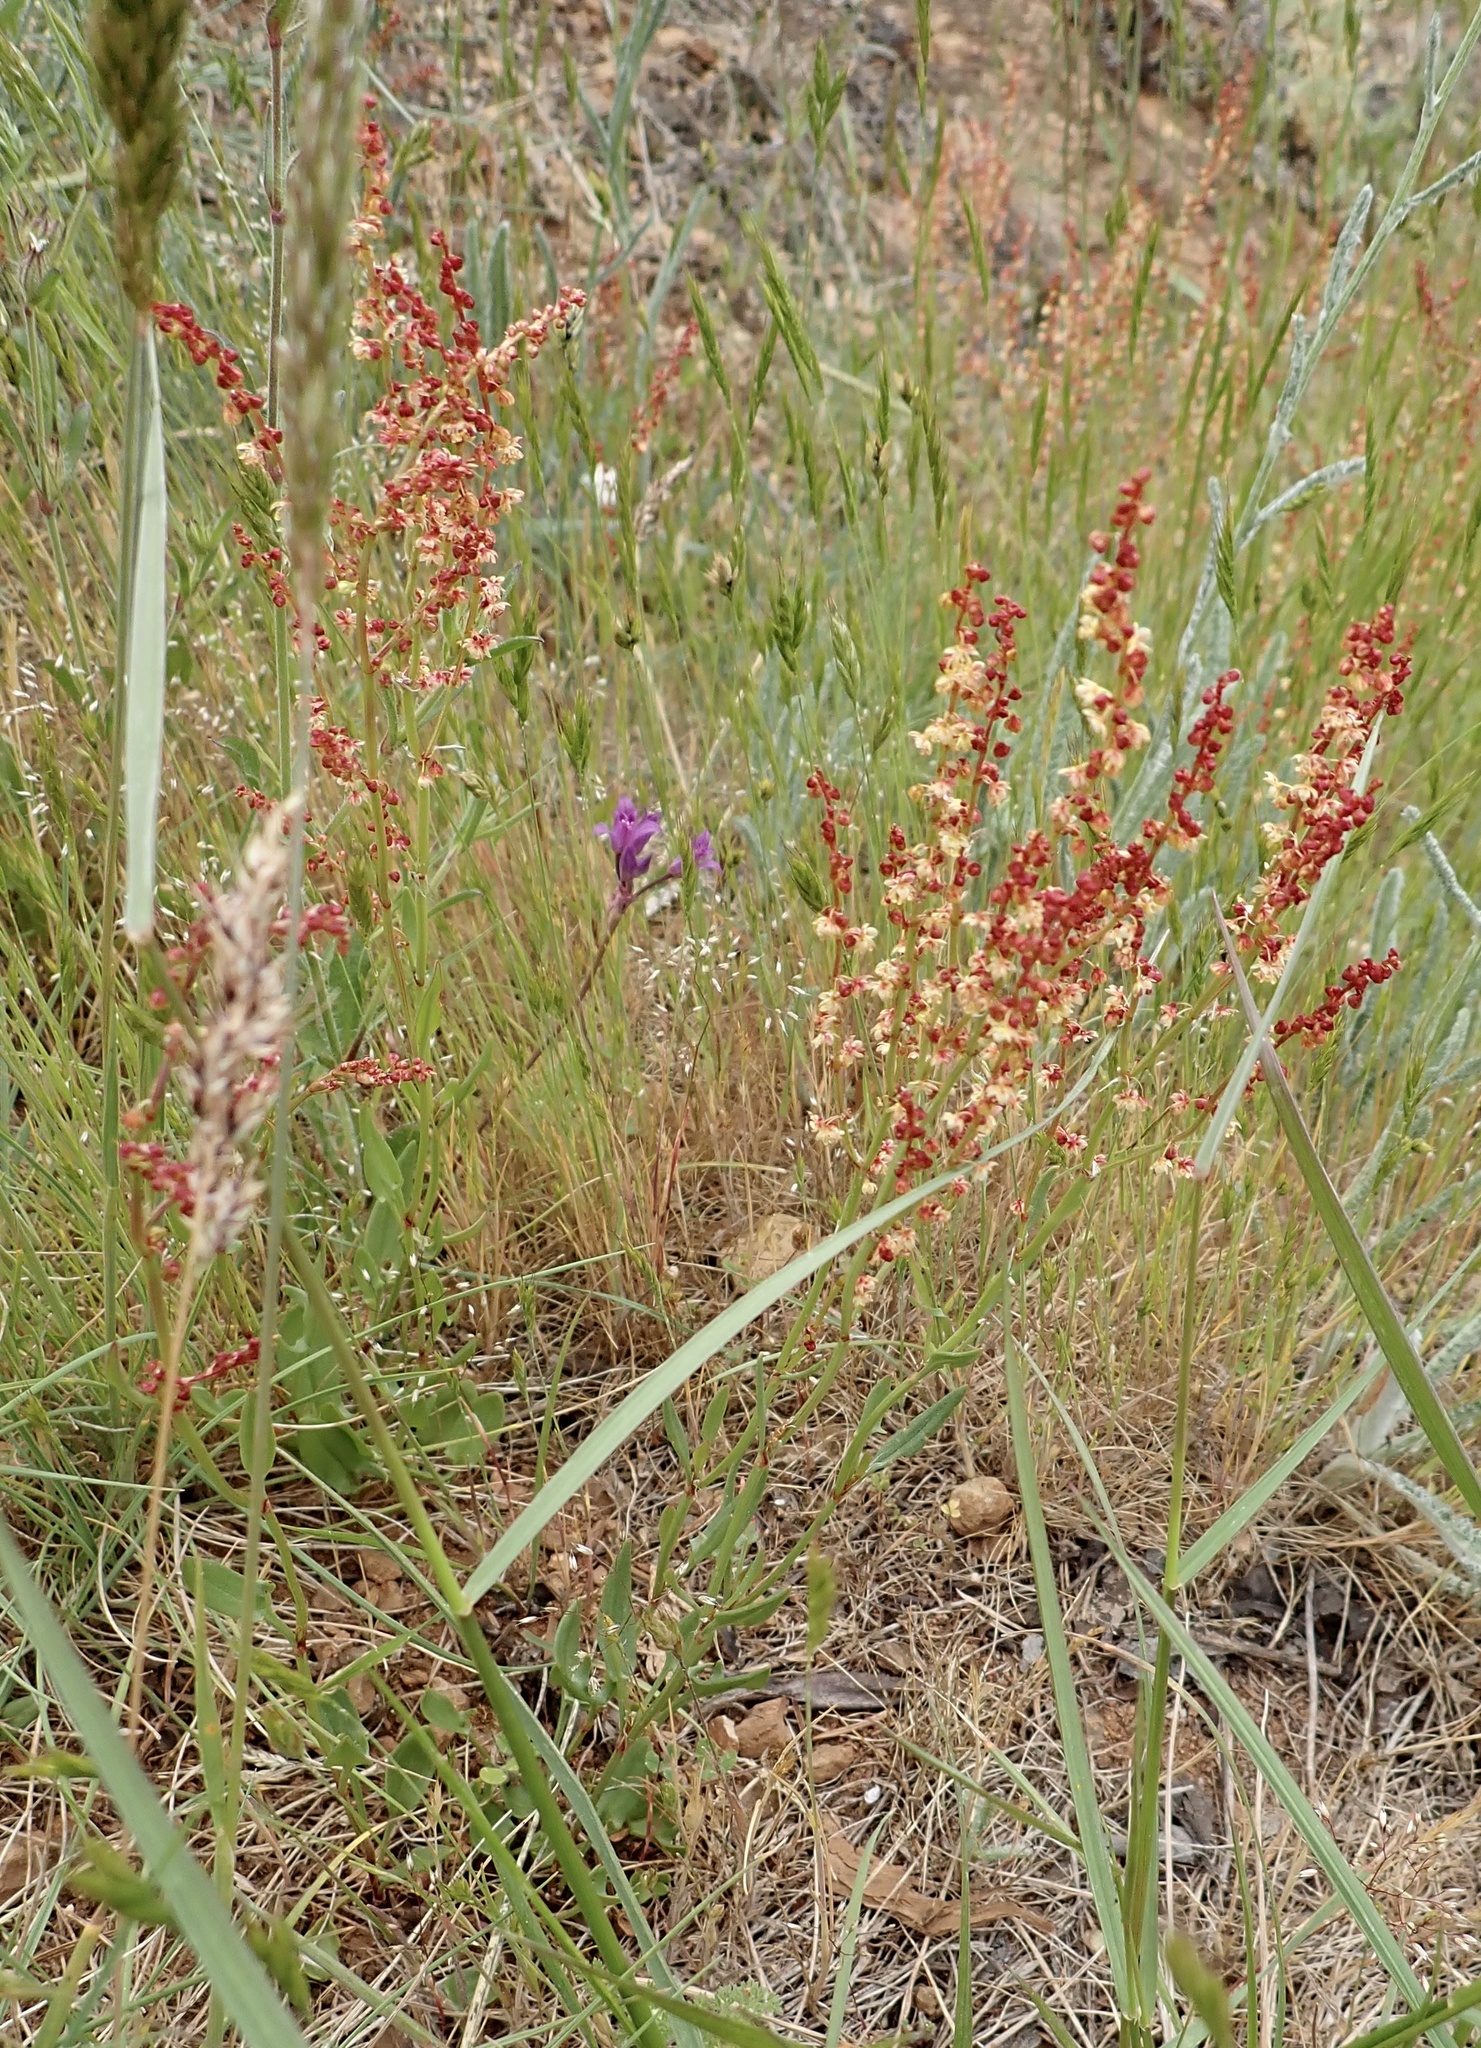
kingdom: Plantae
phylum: Tracheophyta
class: Magnoliopsida
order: Caryophyllales
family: Polygonaceae
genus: Rumex
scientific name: Rumex acetosella
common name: Common sheep sorrel
